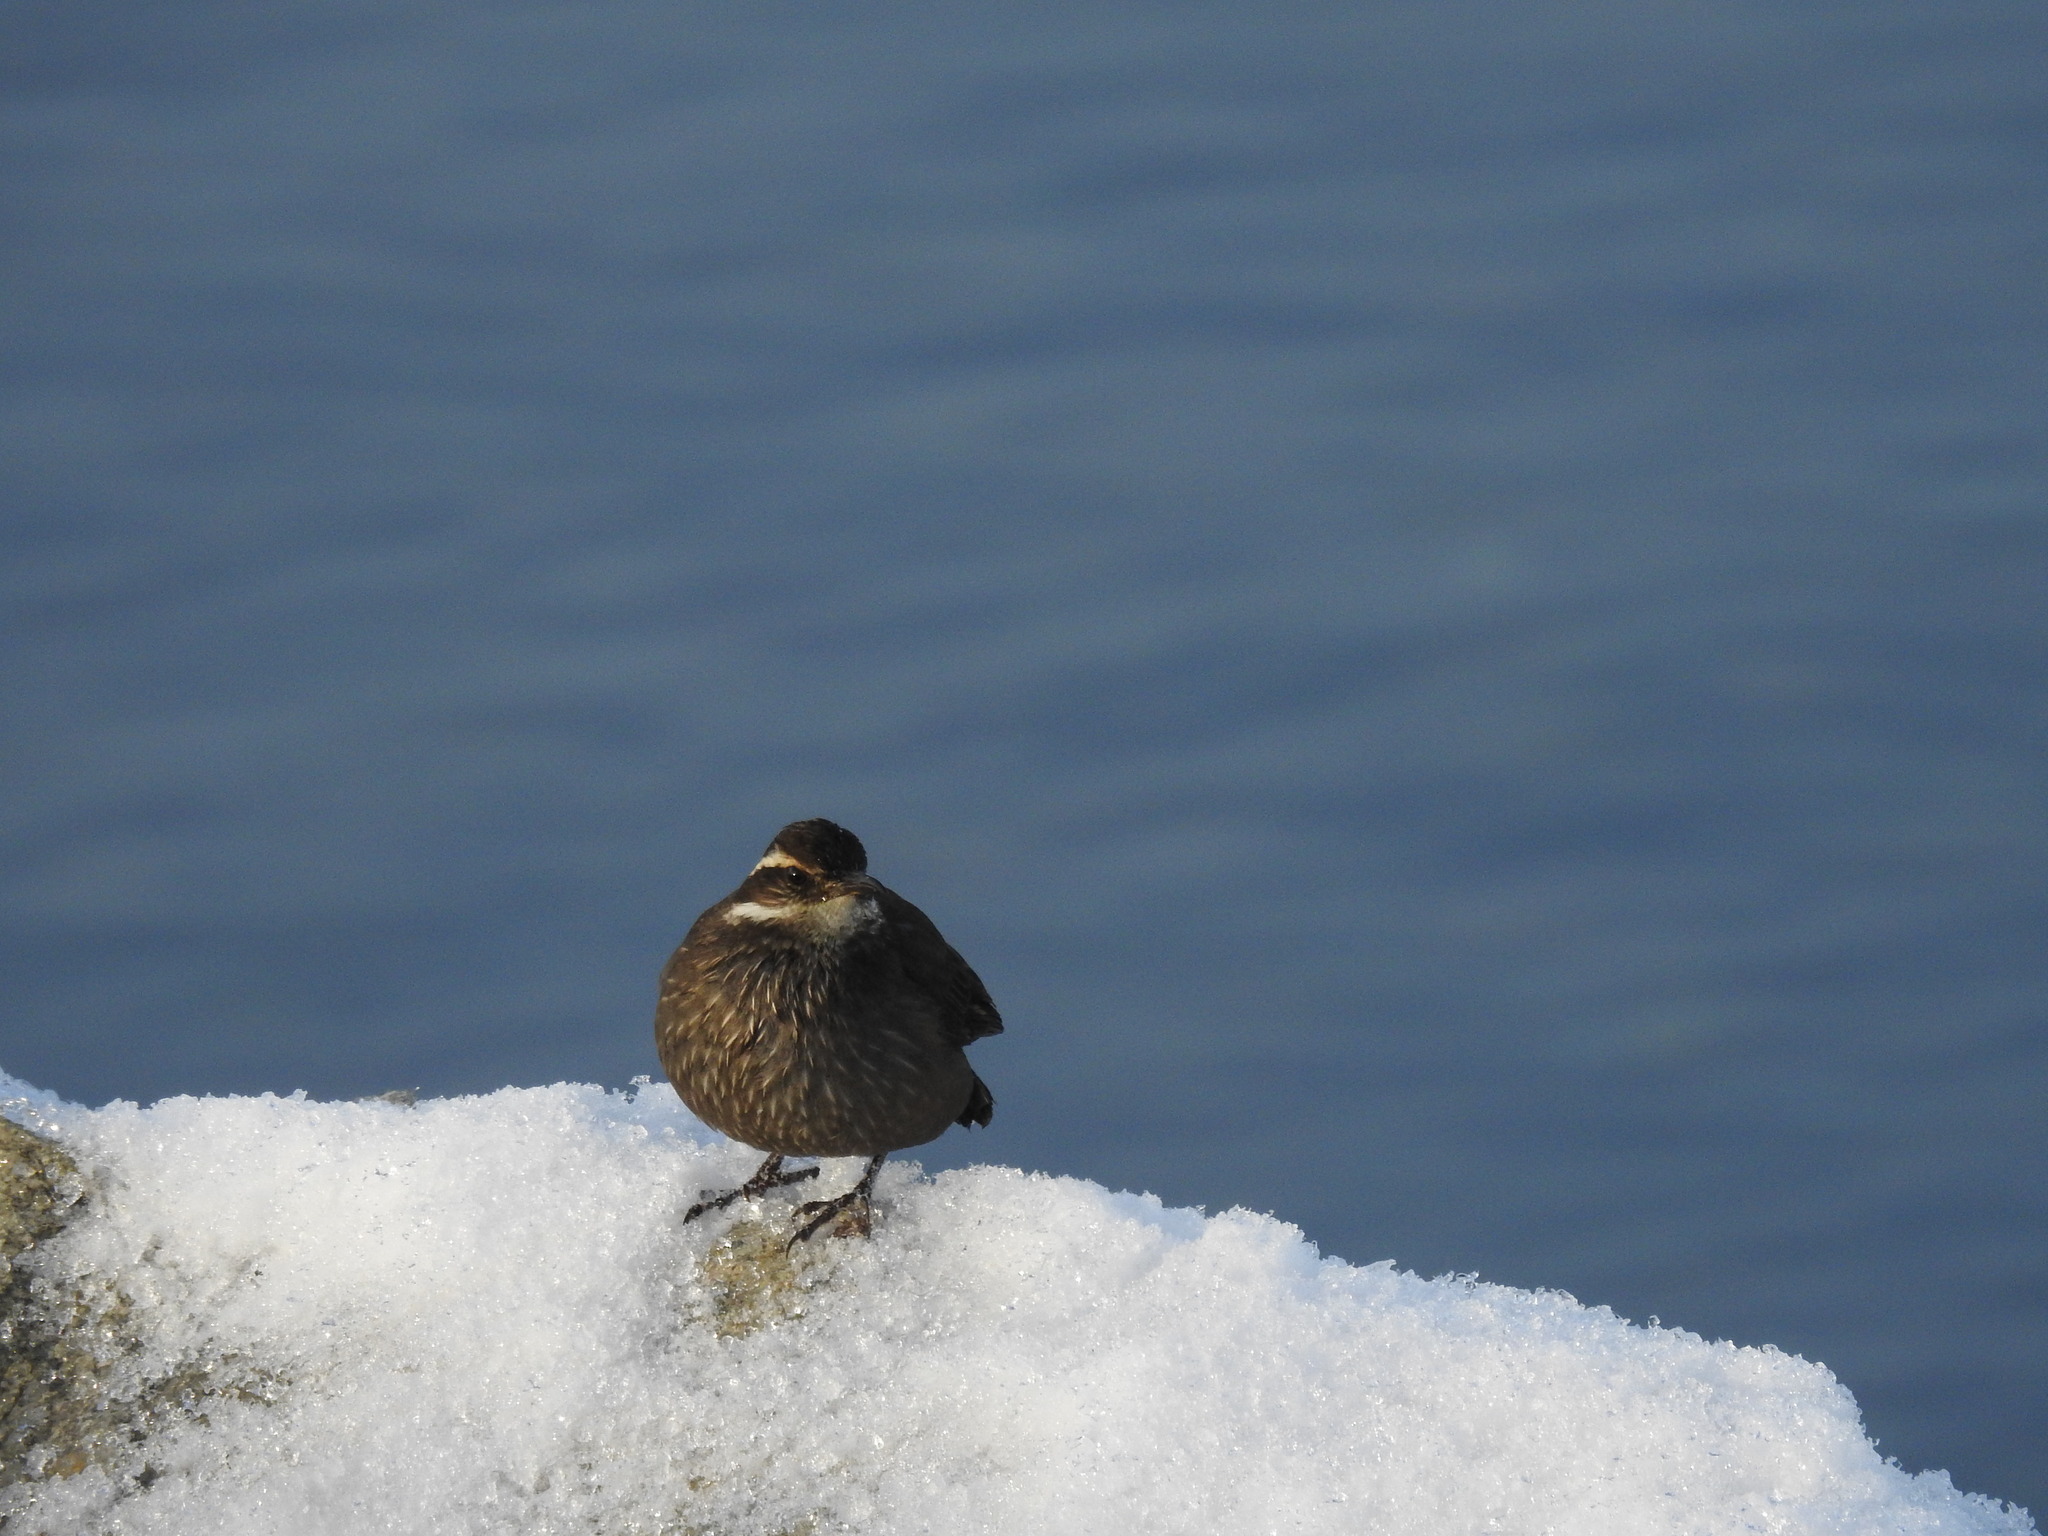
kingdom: Animalia
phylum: Chordata
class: Aves
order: Passeriformes
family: Furnariidae
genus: Cinclodes
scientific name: Cinclodes patagonicus
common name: Dark-bellied cinclodes
